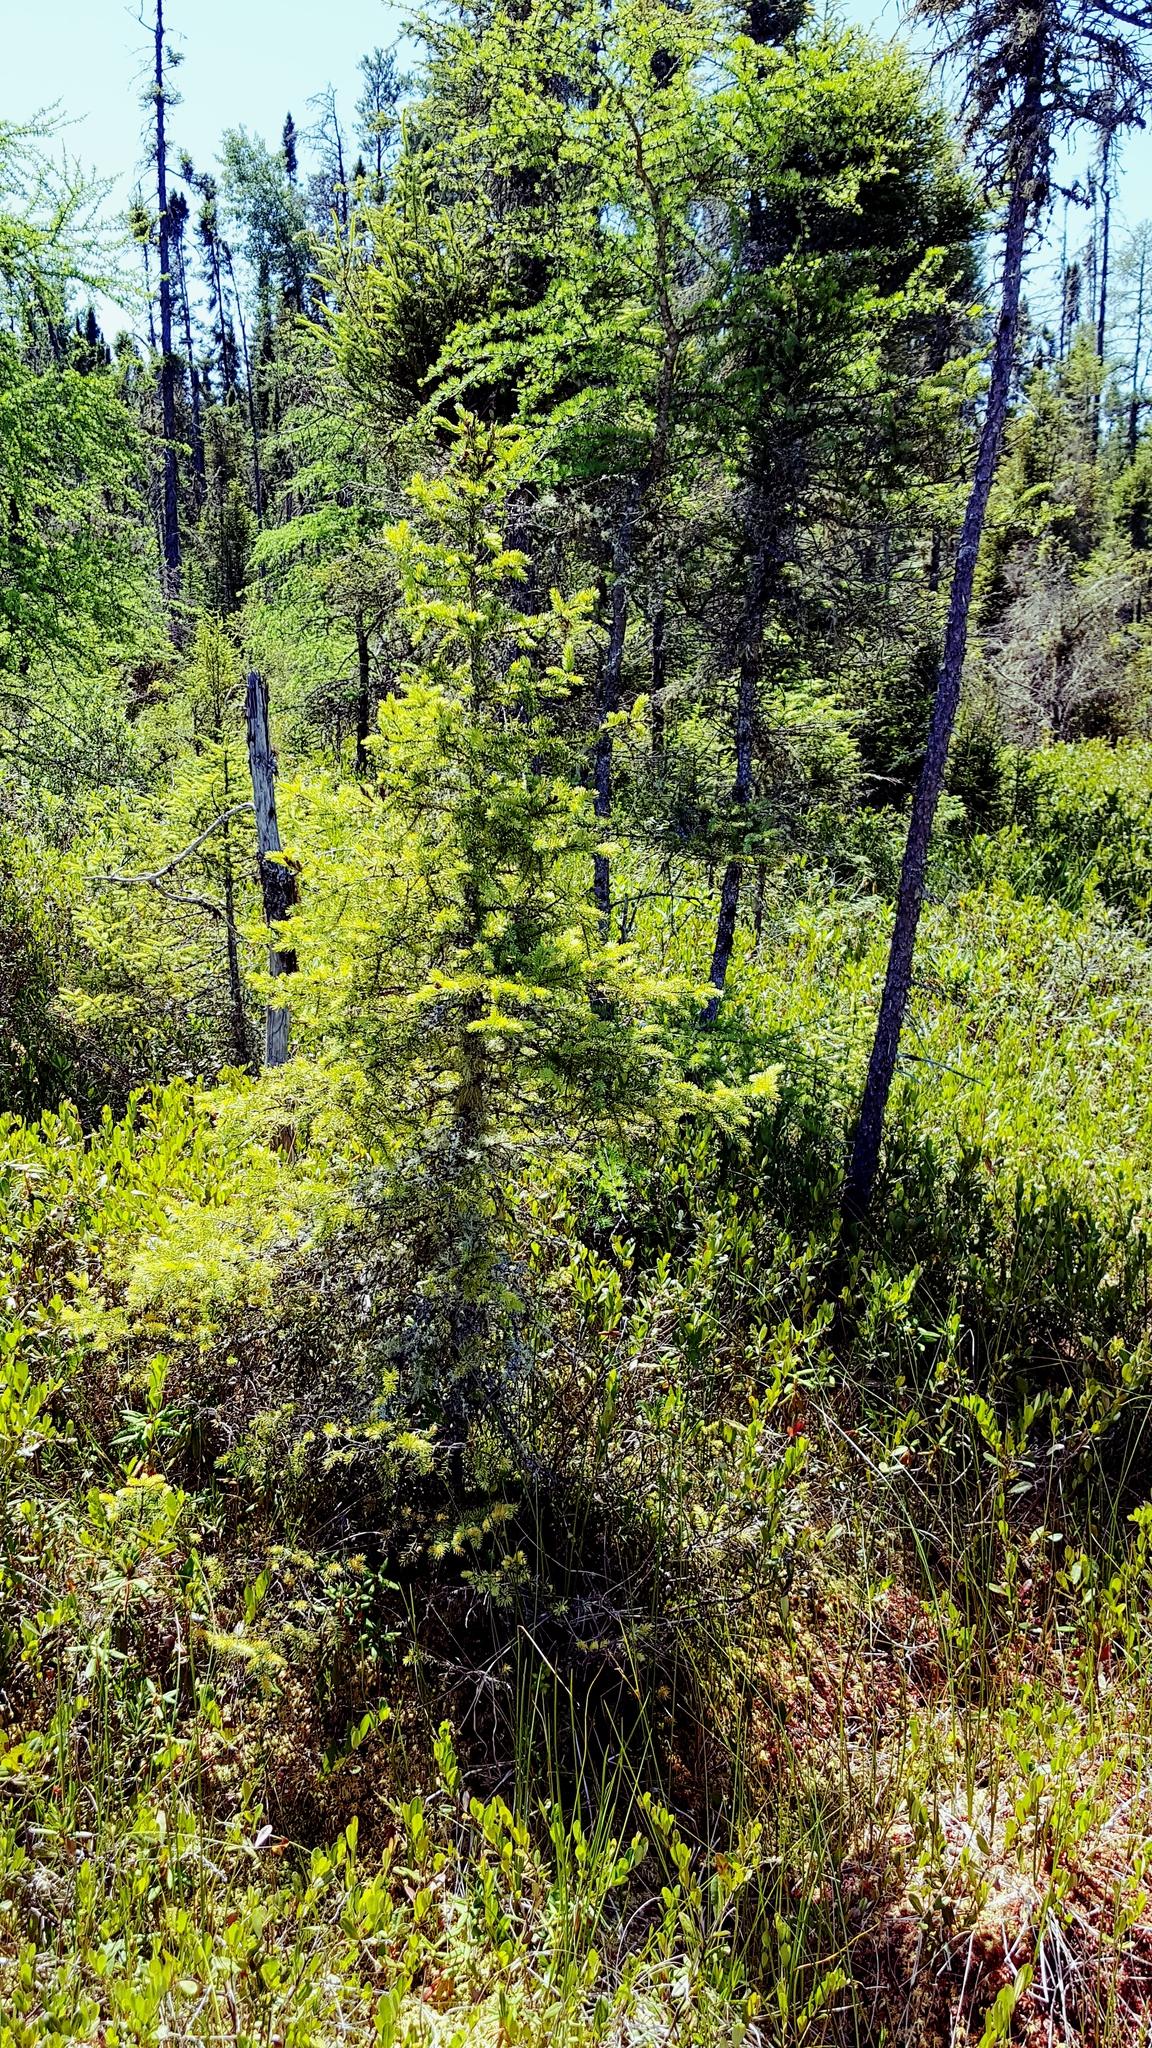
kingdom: Plantae
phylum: Tracheophyta
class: Pinopsida
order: Pinales
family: Pinaceae
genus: Picea
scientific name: Picea mariana
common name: Black spruce
